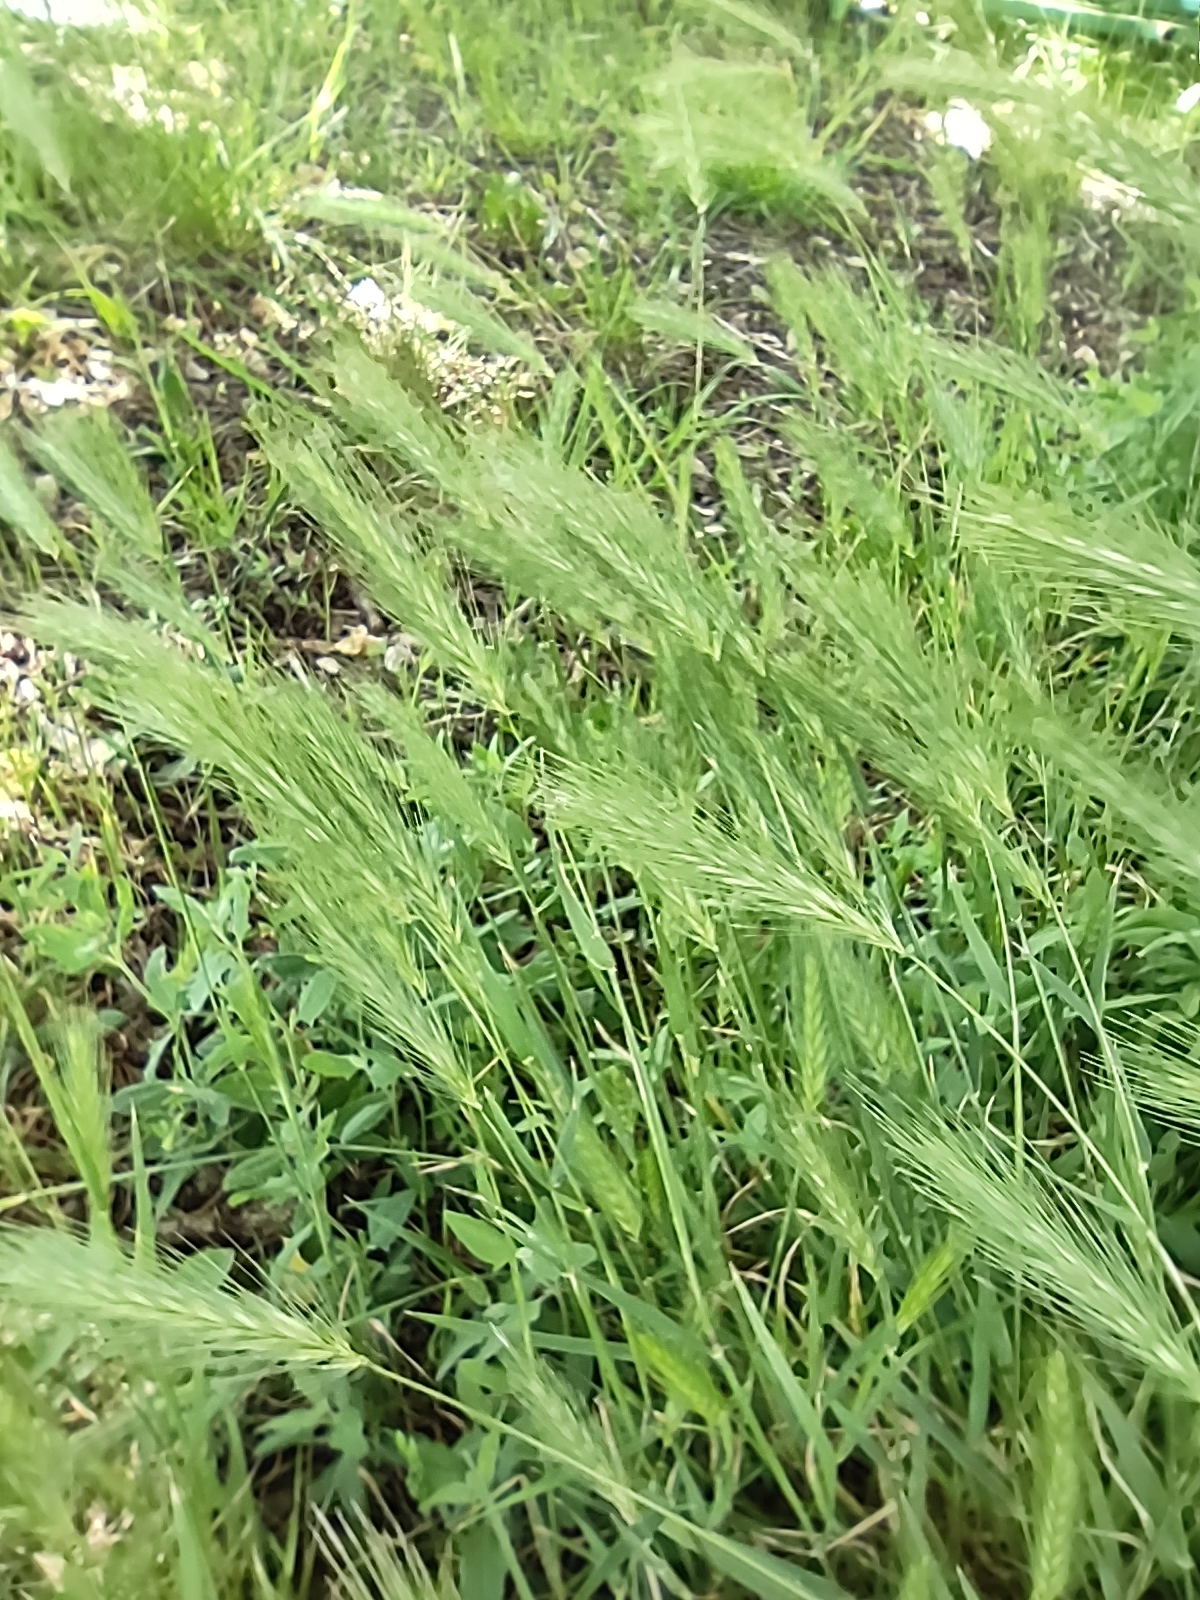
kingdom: Plantae
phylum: Tracheophyta
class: Liliopsida
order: Poales
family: Poaceae
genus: Hordeum
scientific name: Hordeum murinum
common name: Wall barley
